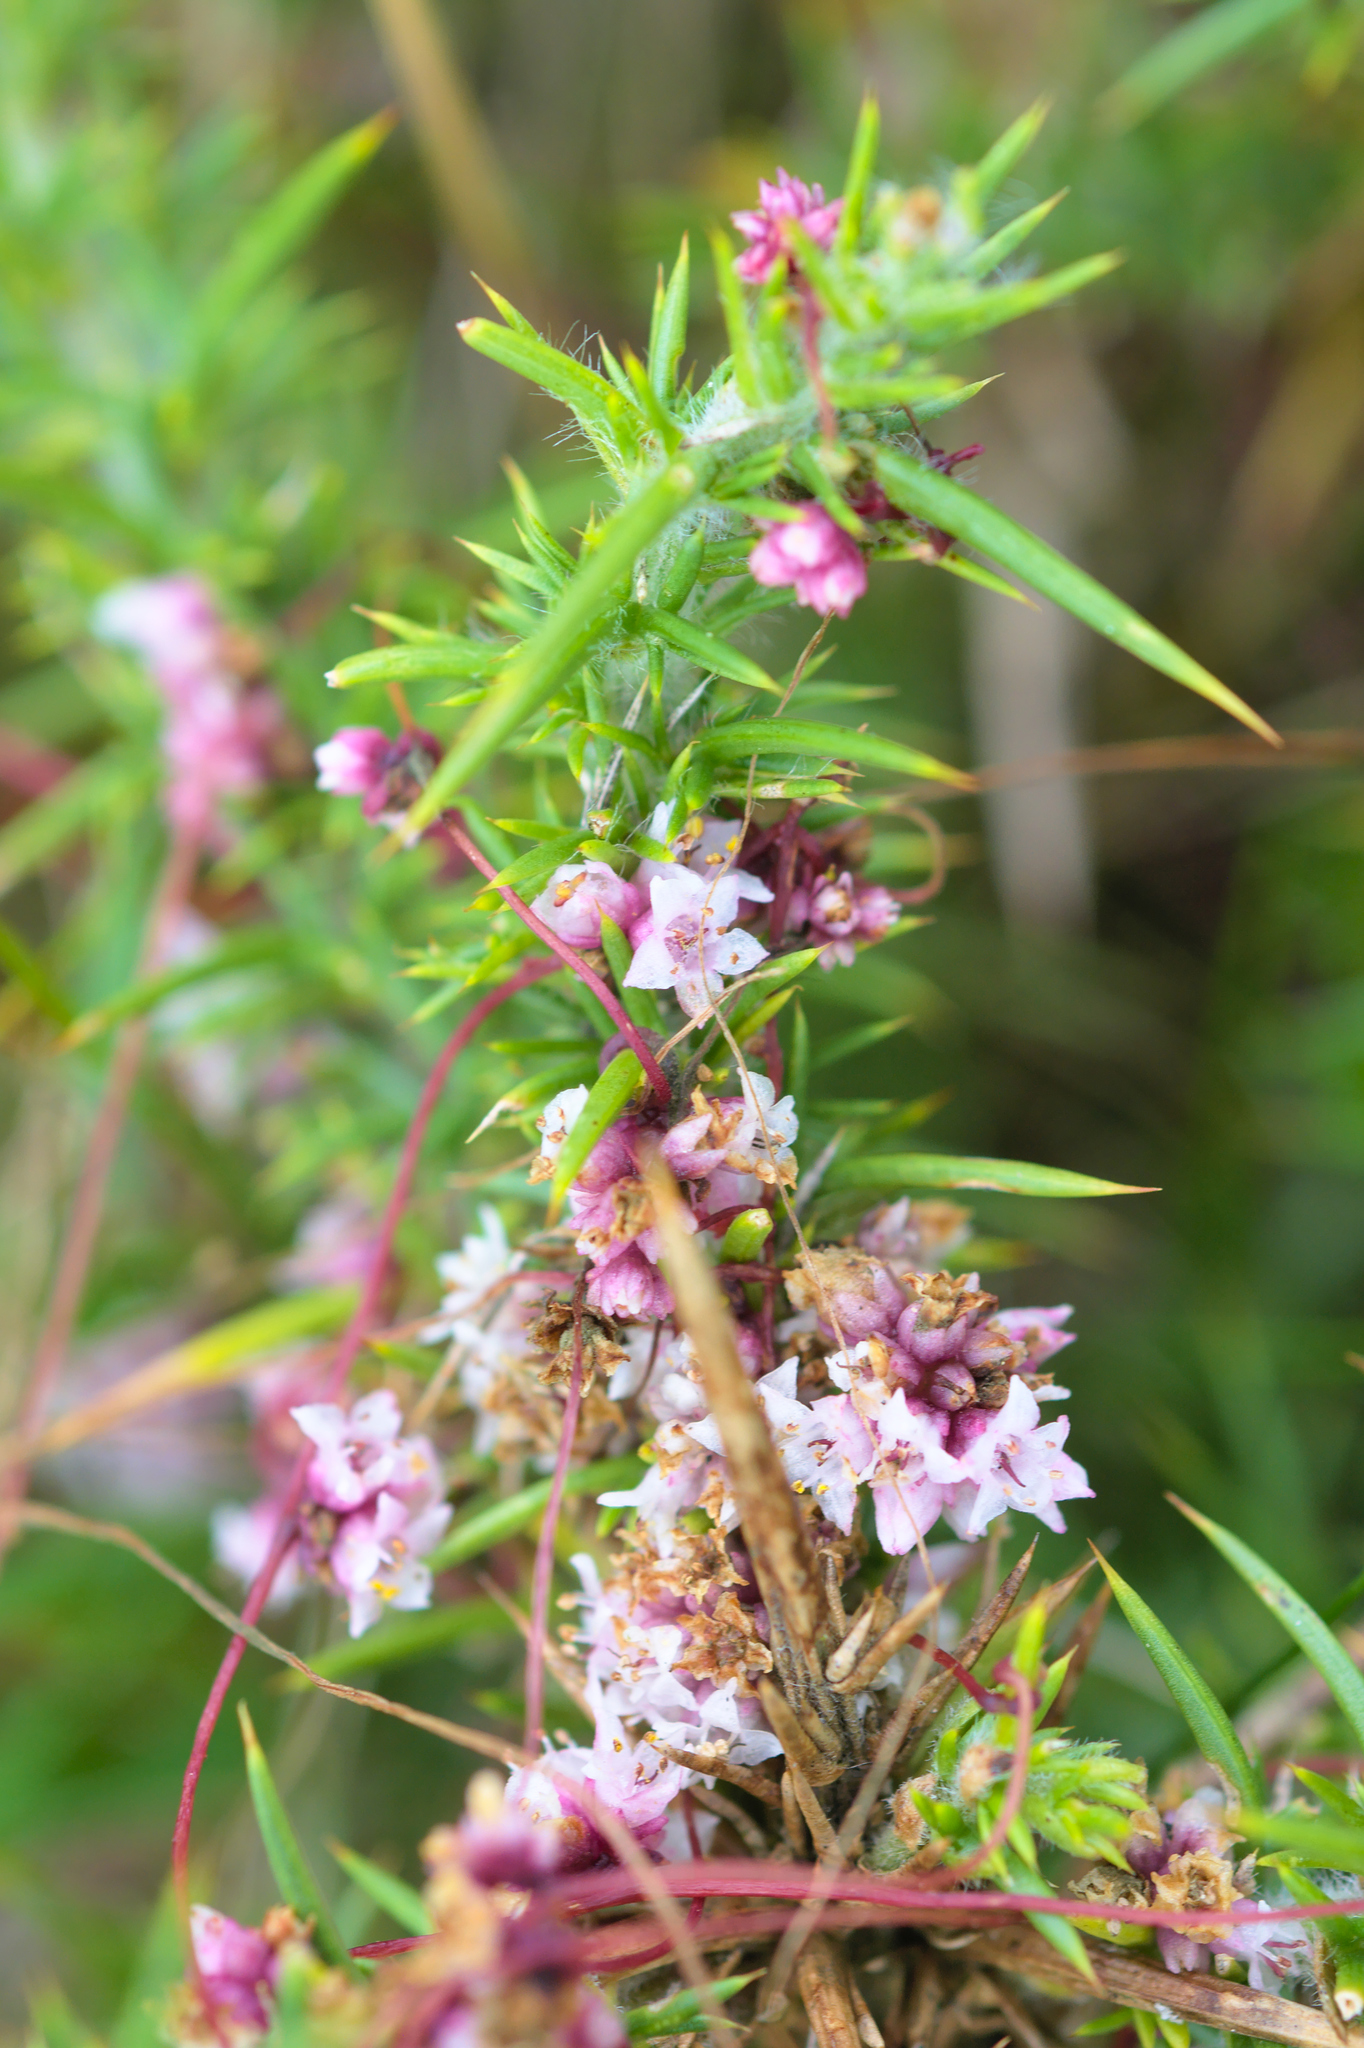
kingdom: Plantae
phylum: Tracheophyta
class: Magnoliopsida
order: Solanales
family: Convolvulaceae
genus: Cuscuta
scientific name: Cuscuta epithymum
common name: Clover dodder
